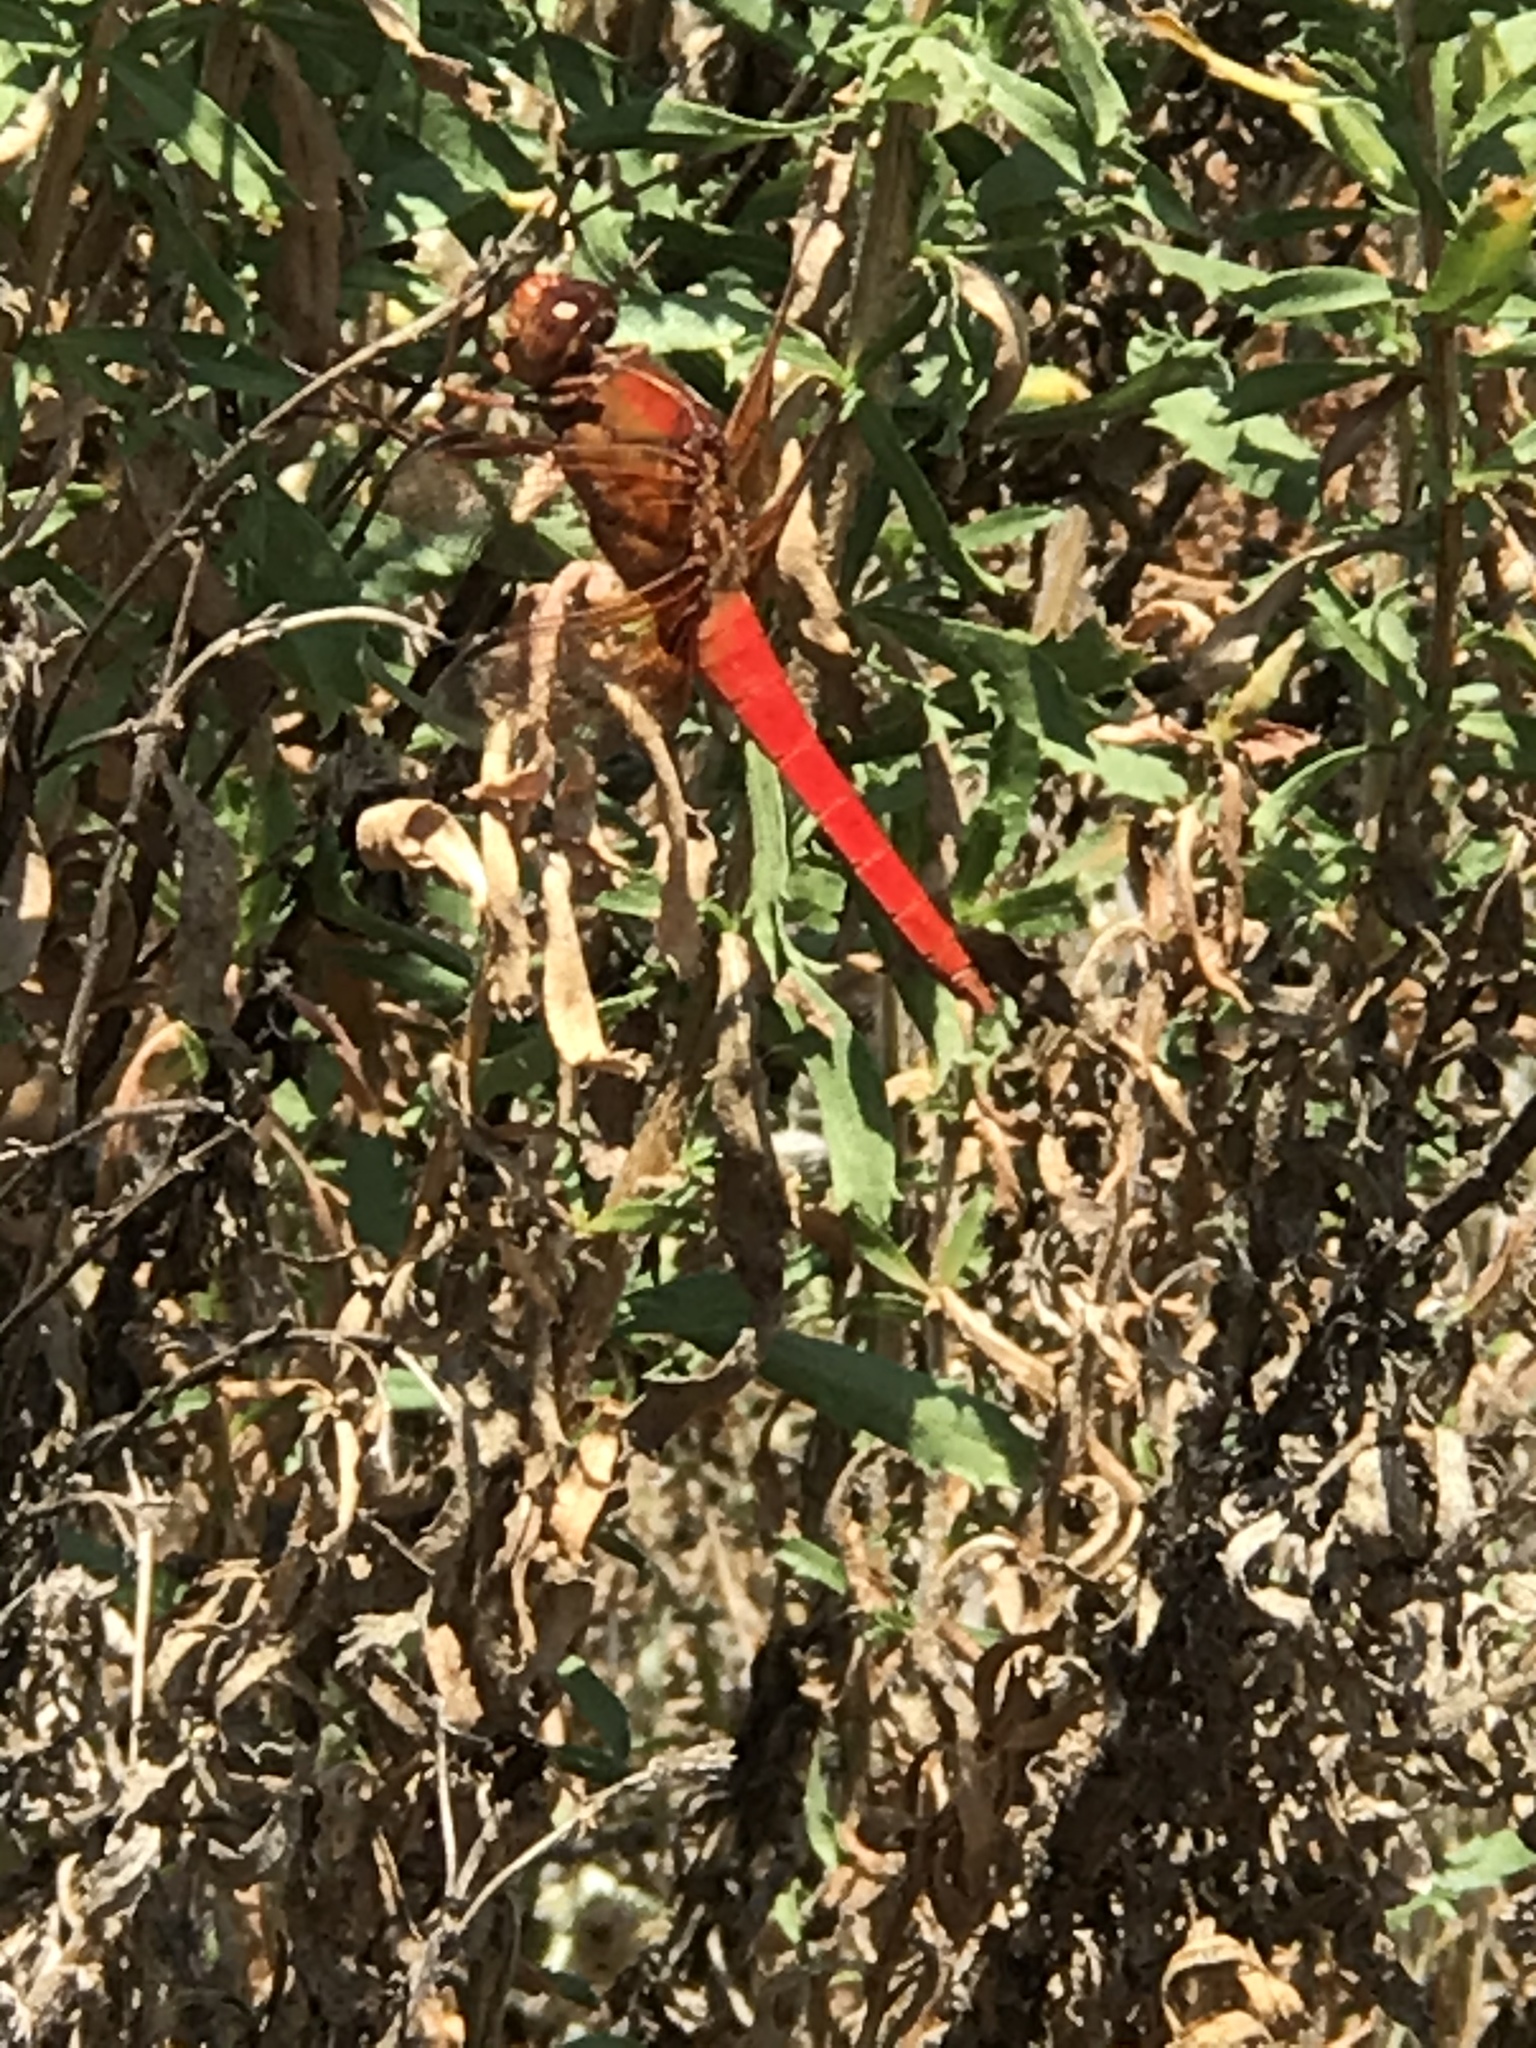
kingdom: Animalia
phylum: Arthropoda
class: Insecta
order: Odonata
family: Libellulidae
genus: Libellula
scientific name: Libellula croceipennis
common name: Neon skimmer
